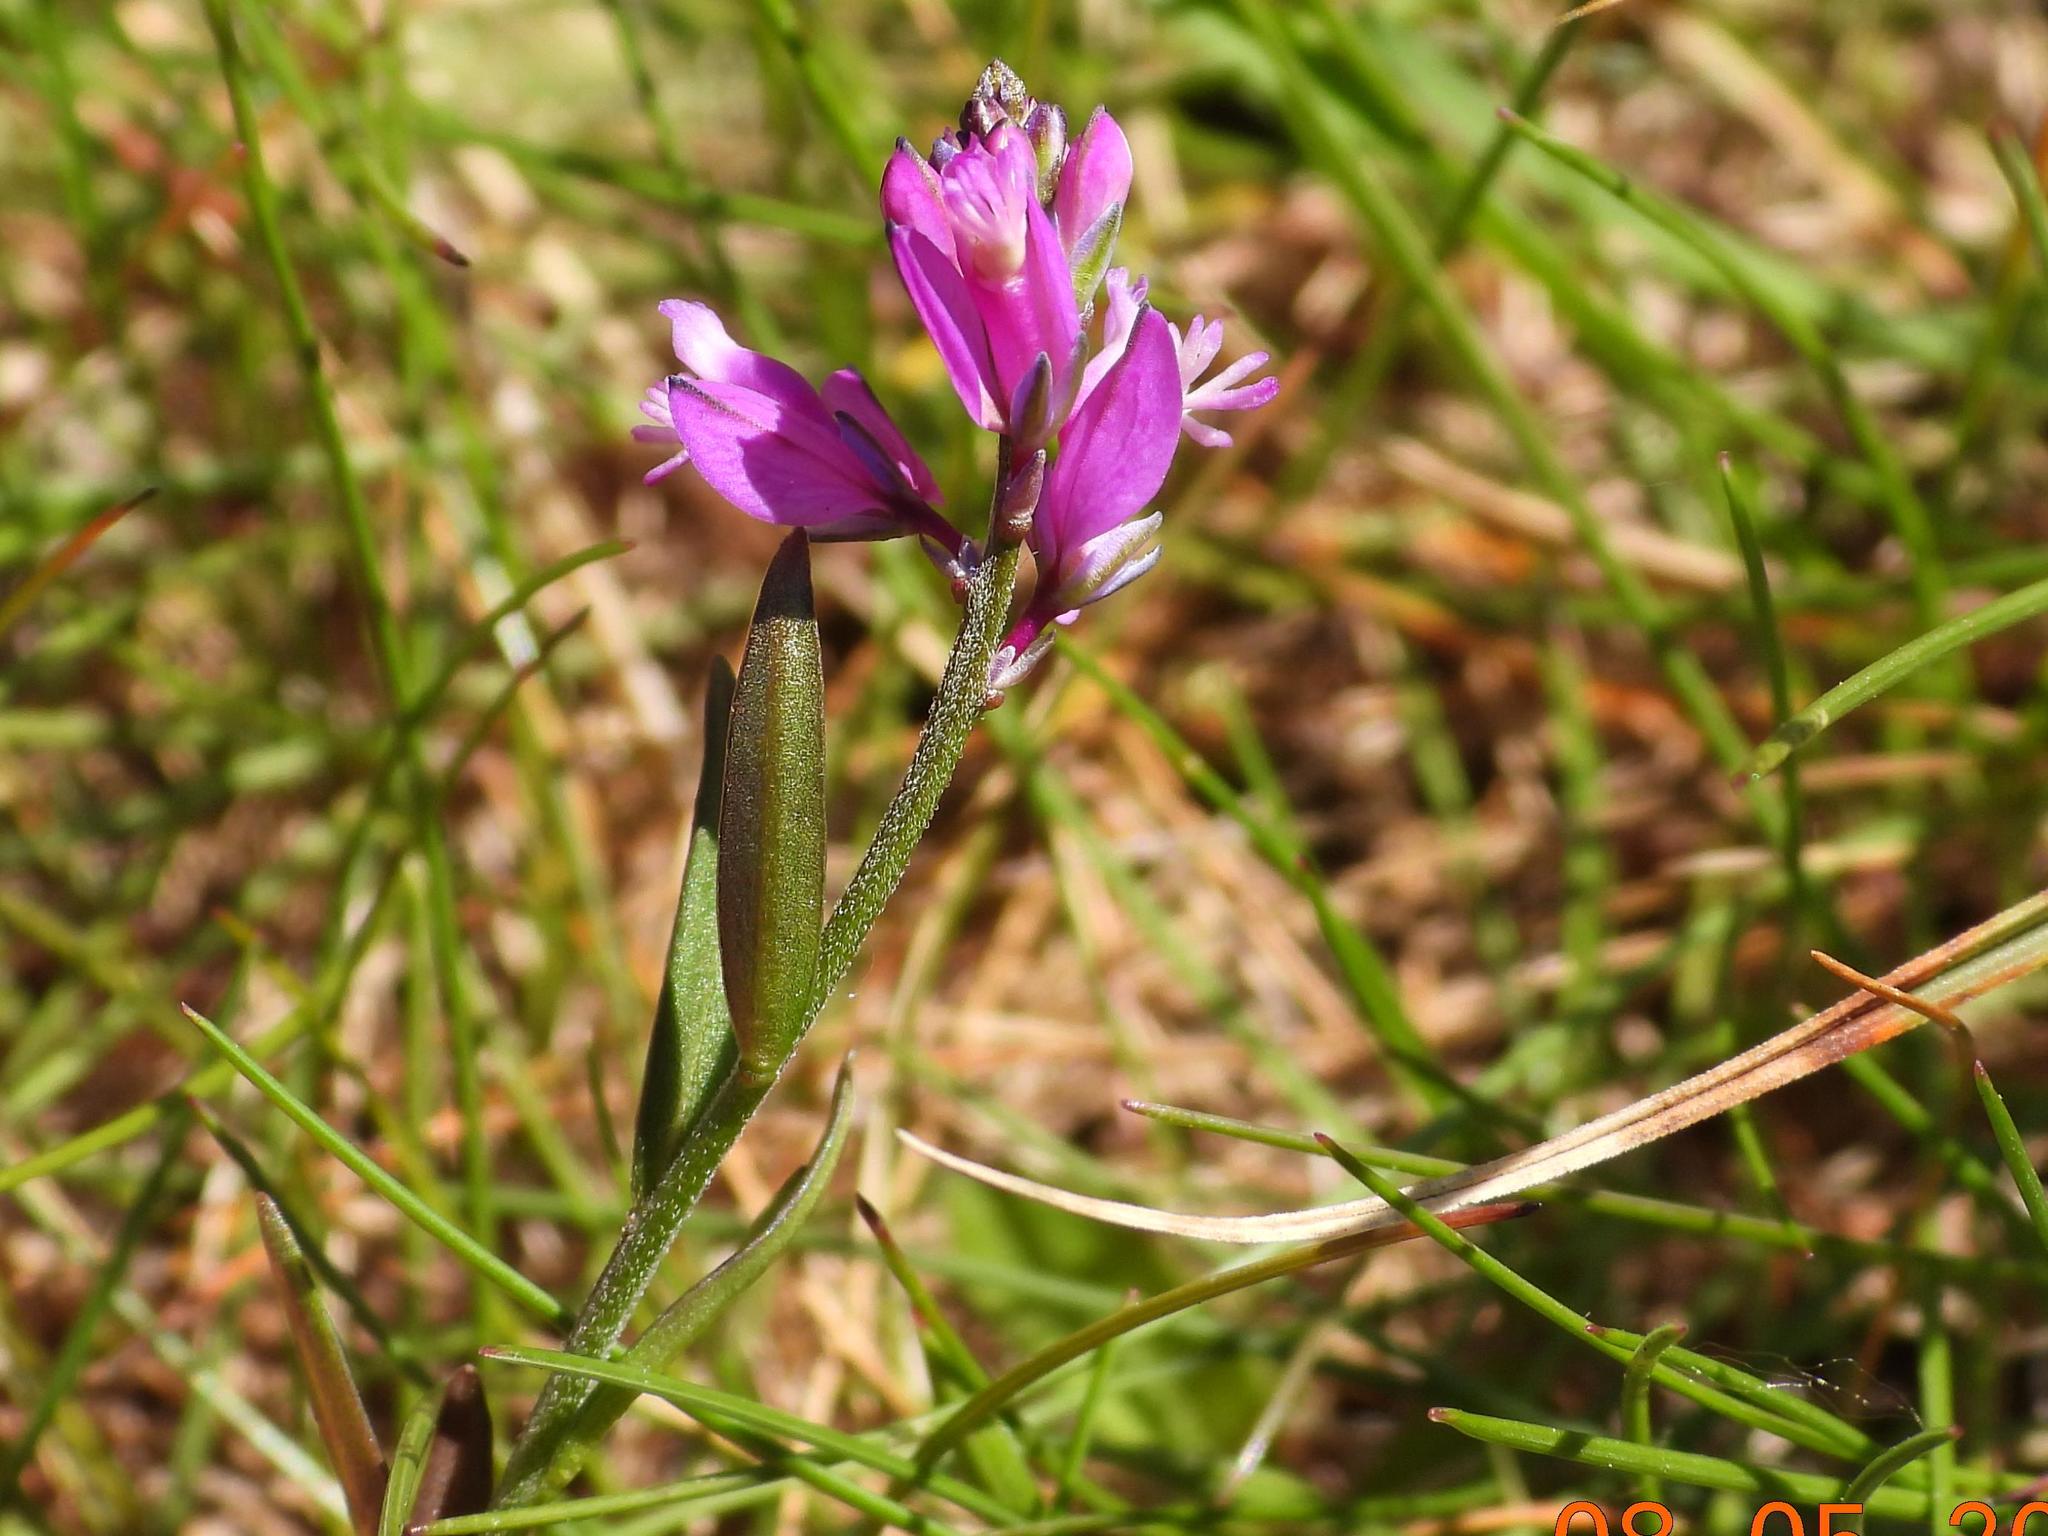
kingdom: Plantae
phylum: Tracheophyta
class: Magnoliopsida
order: Fabales
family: Polygalaceae
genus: Polygala
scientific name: Polygala vulgaris
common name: Common milkwort
